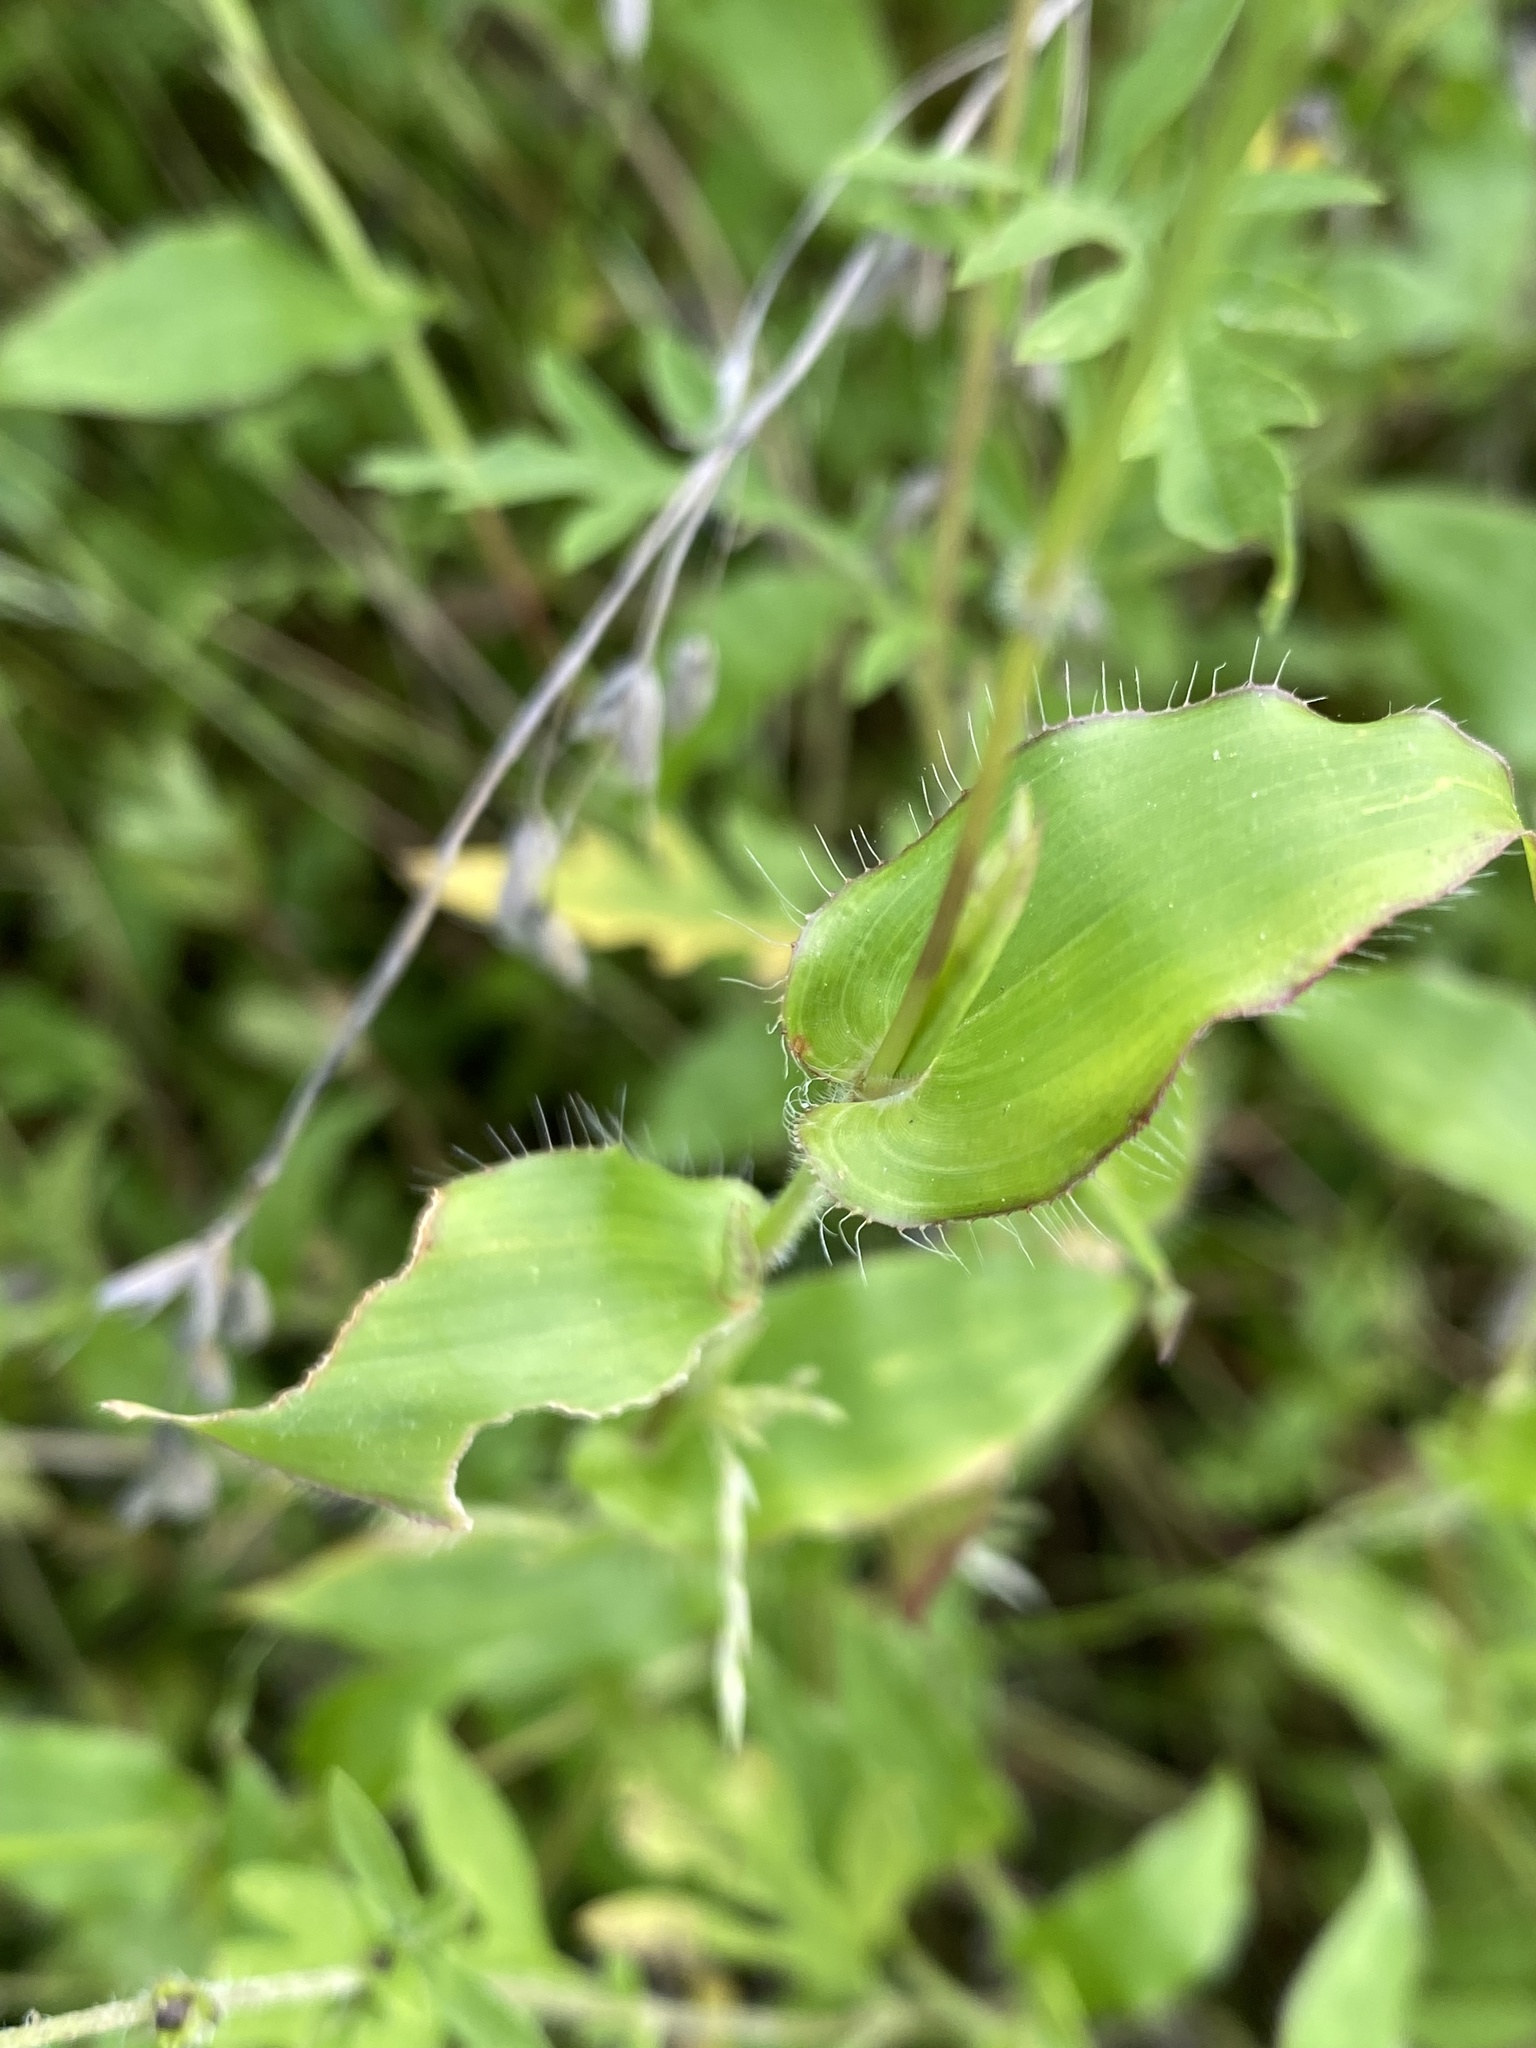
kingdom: Plantae
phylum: Tracheophyta
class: Liliopsida
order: Poales
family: Poaceae
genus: Arthraxon
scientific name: Arthraxon hispidus
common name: Small carpgrass
